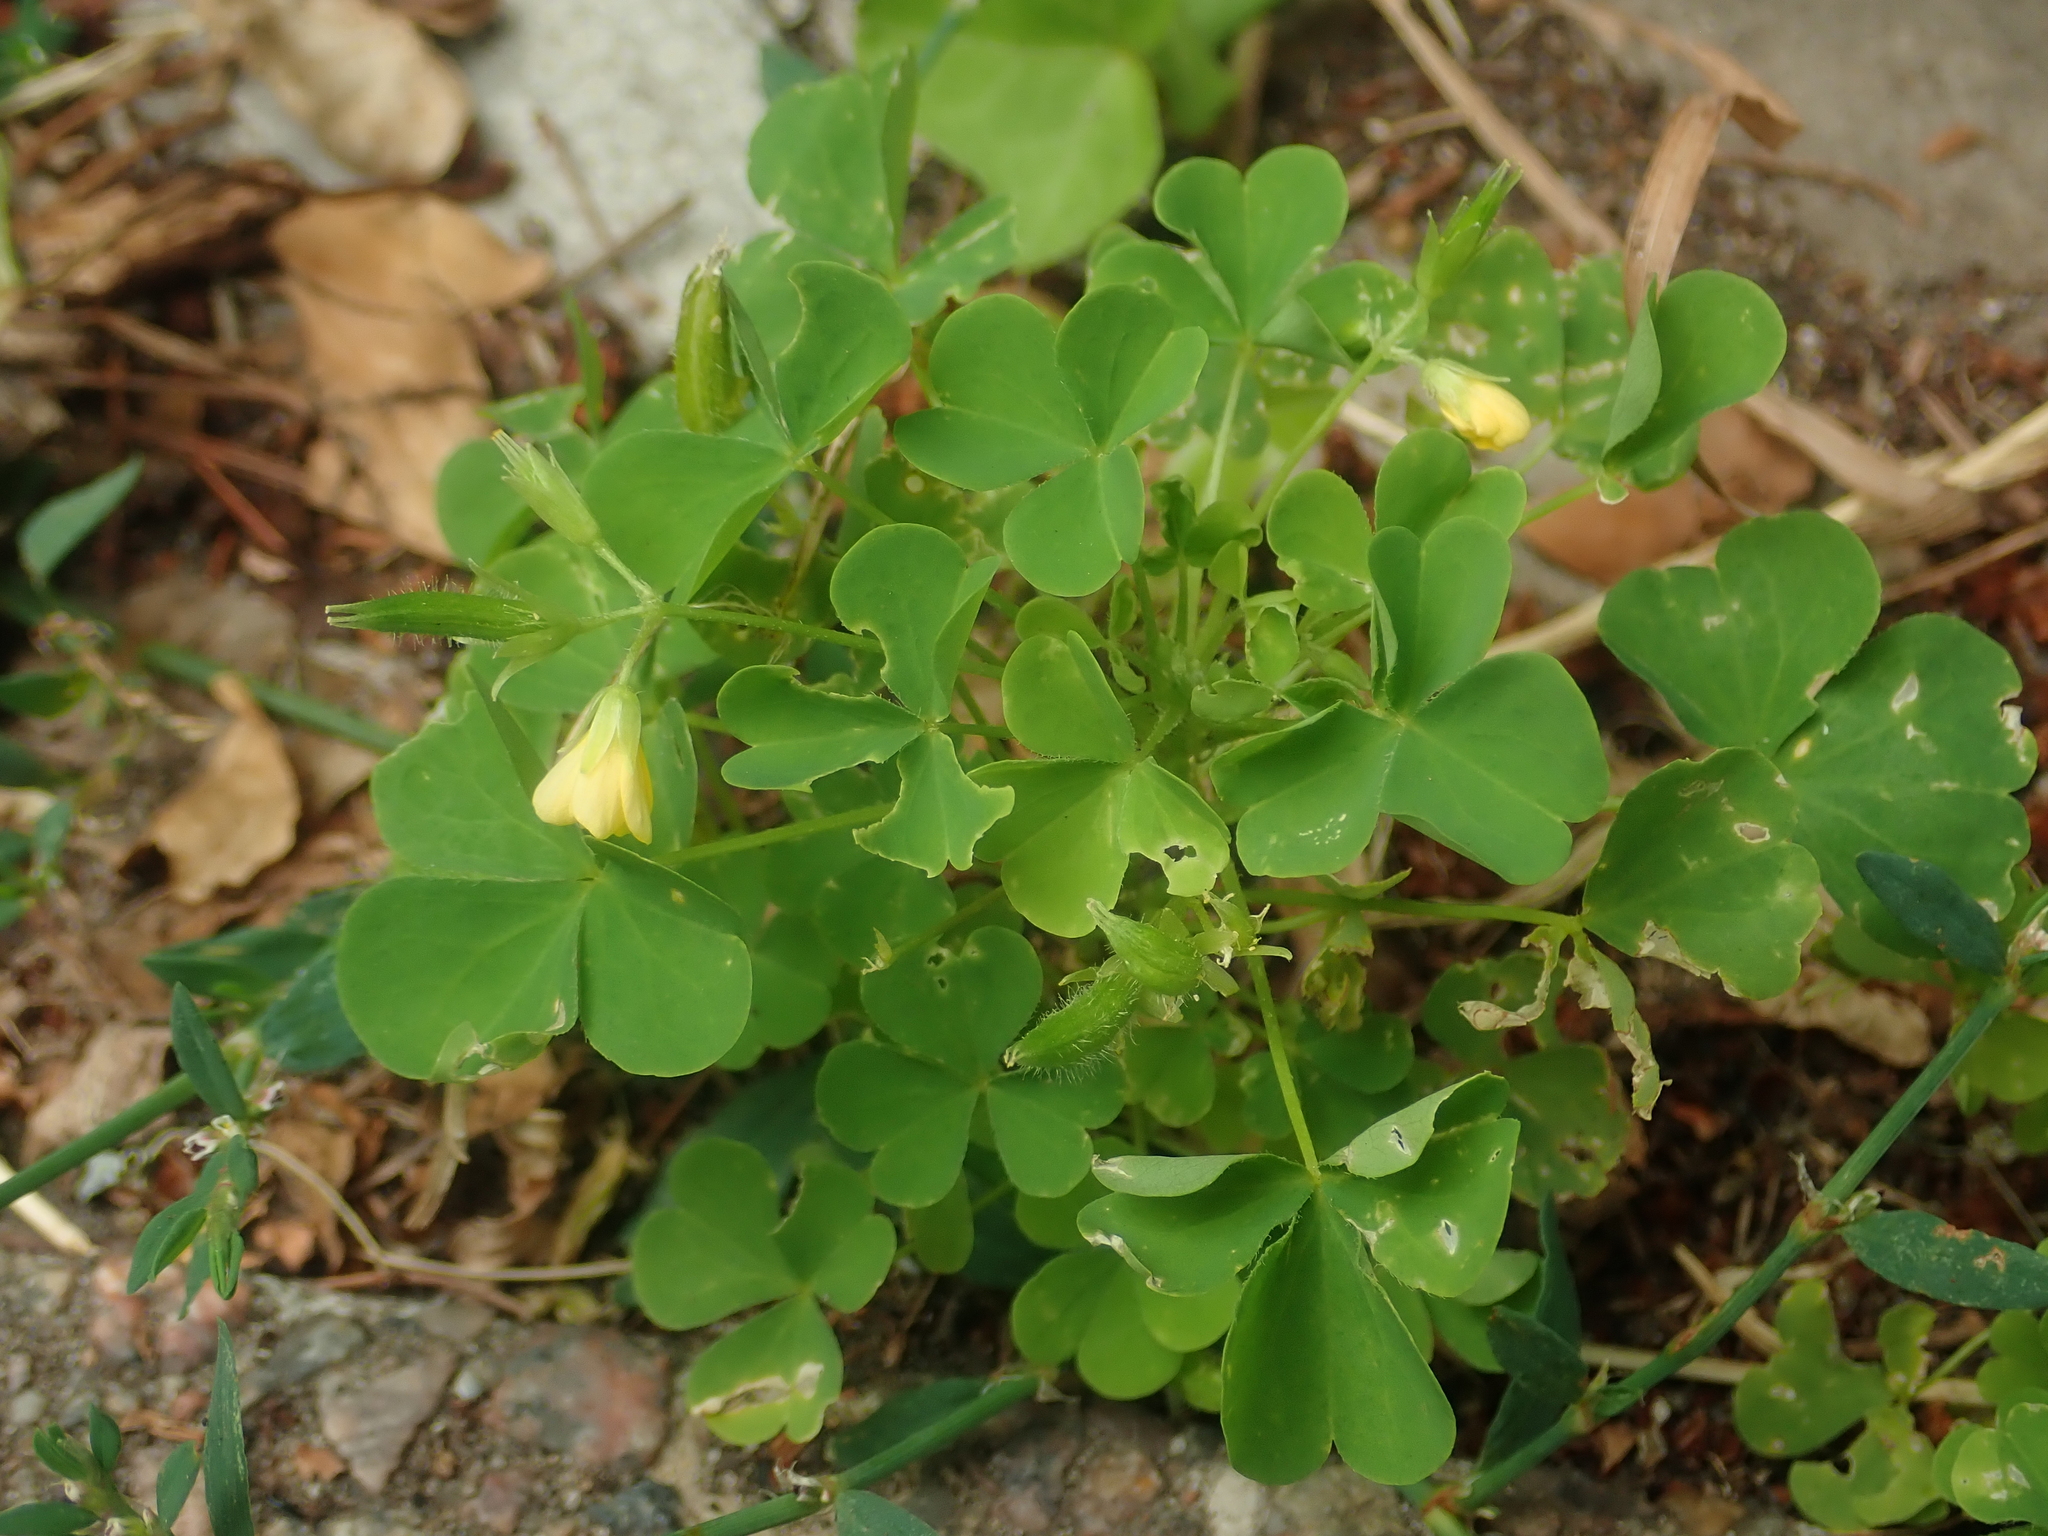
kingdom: Plantae
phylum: Tracheophyta
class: Magnoliopsida
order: Oxalidales
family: Oxalidaceae
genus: Oxalis
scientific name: Oxalis stricta
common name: Upright yellow-sorrel
